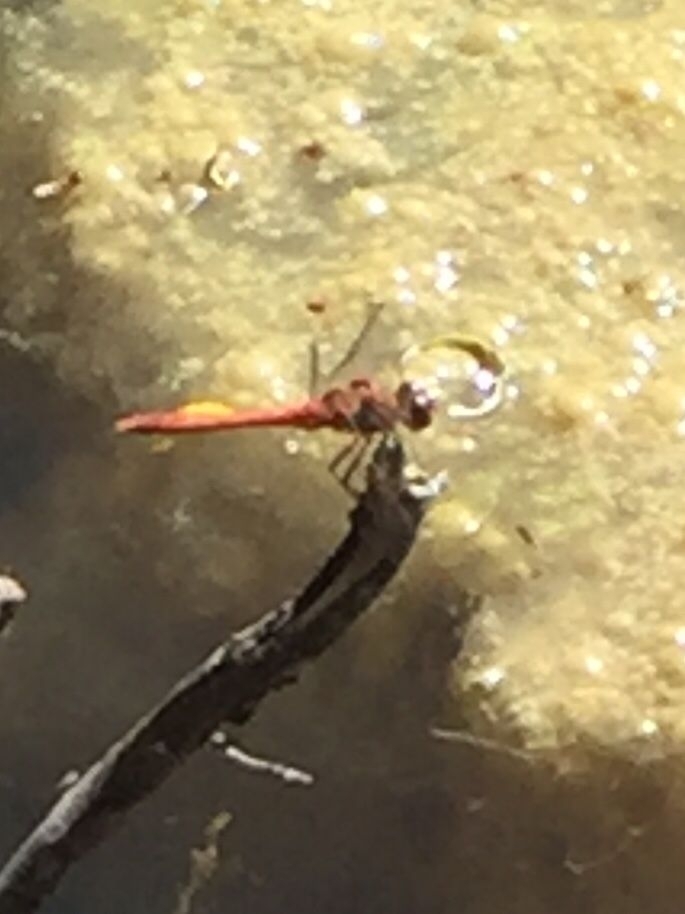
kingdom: Animalia
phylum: Arthropoda
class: Insecta
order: Odonata
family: Libellulidae
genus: Sympetrum
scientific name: Sympetrum sanguineum
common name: Ruddy darter
